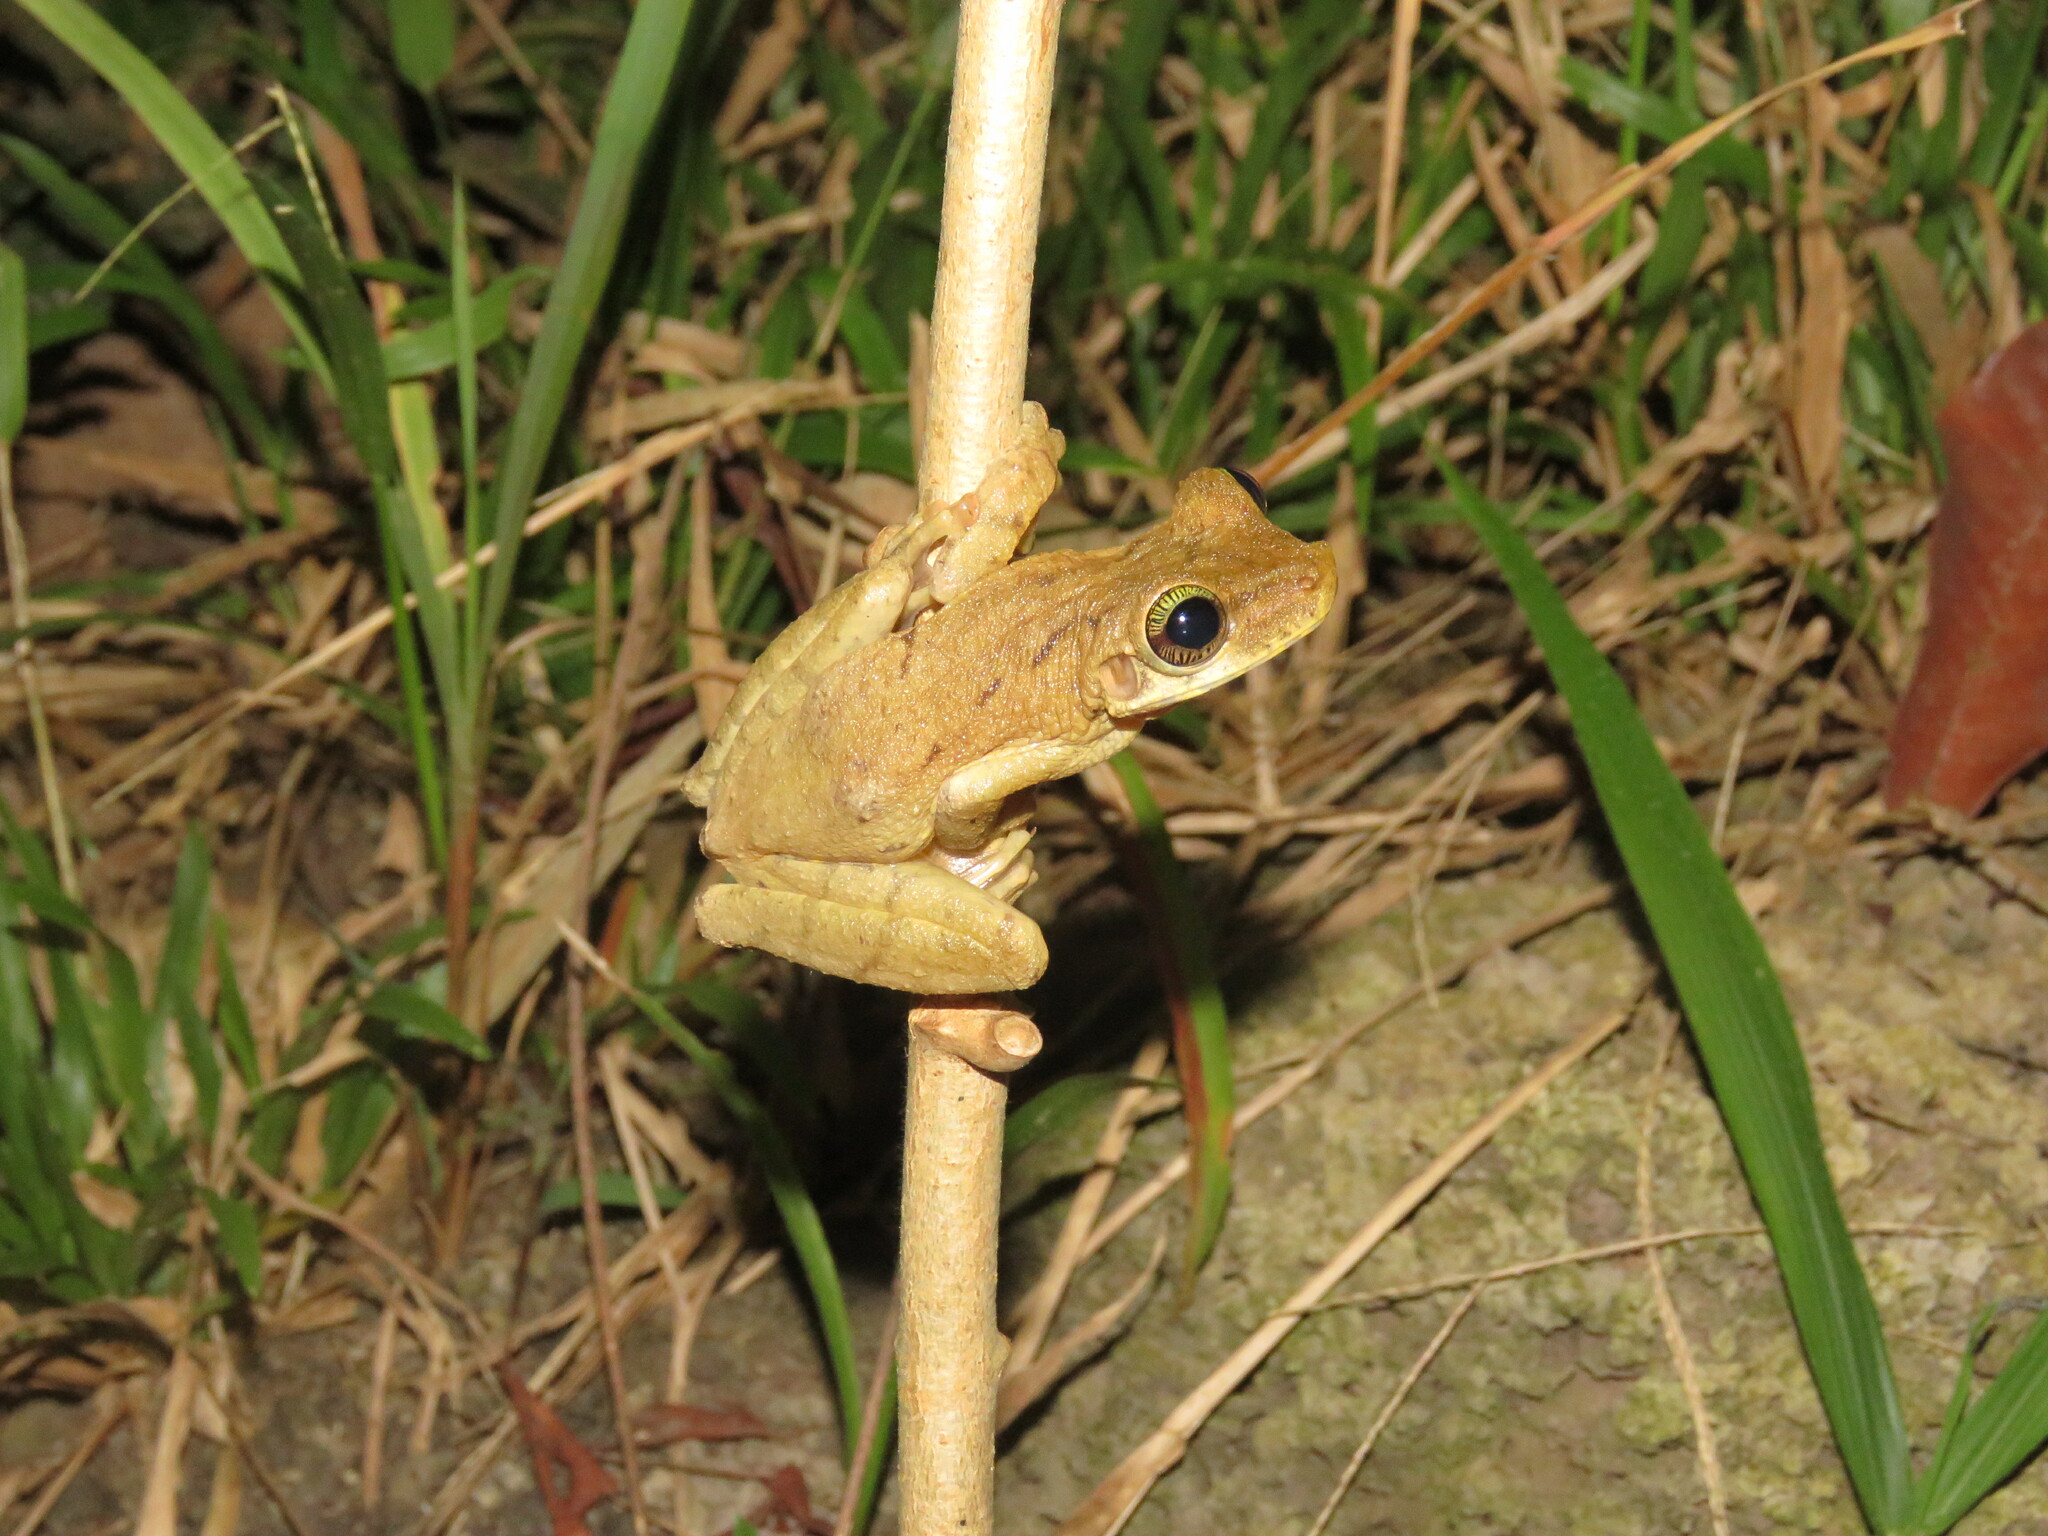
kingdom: Animalia
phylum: Chordata
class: Amphibia
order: Anura
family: Hylidae
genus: Osteocephalus
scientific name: Osteocephalus taurinus
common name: Manaus slender-legged treefrog
